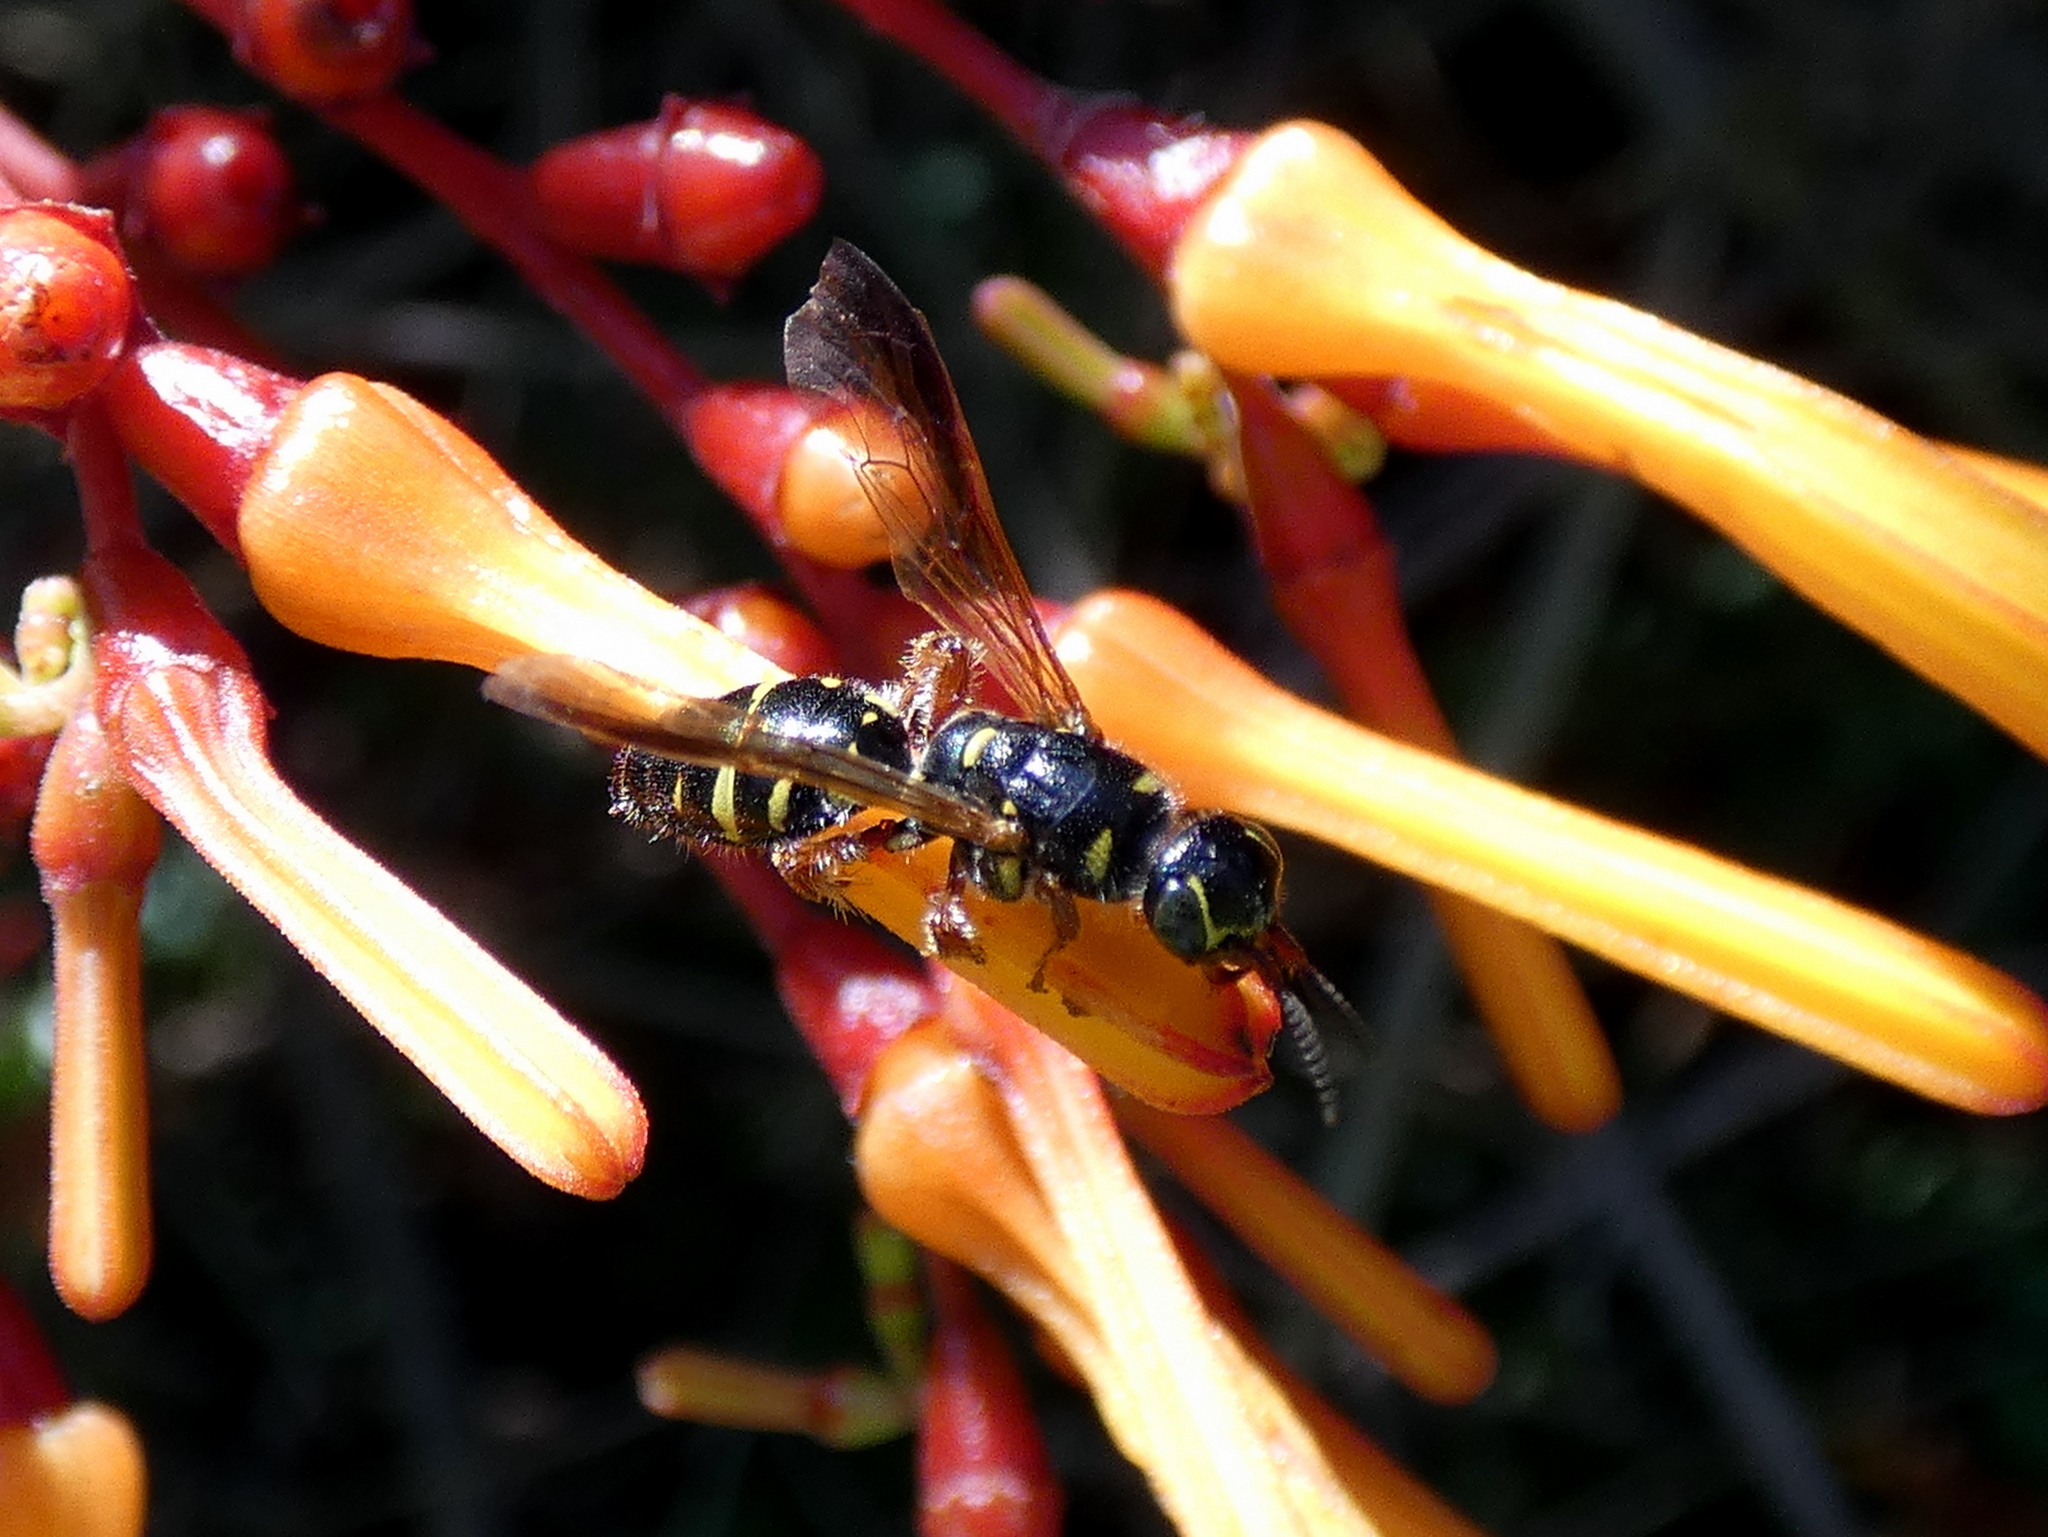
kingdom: Animalia
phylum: Arthropoda
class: Insecta
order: Hymenoptera
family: Tiphiidae
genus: Myzinum
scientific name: Myzinum dubiosum
